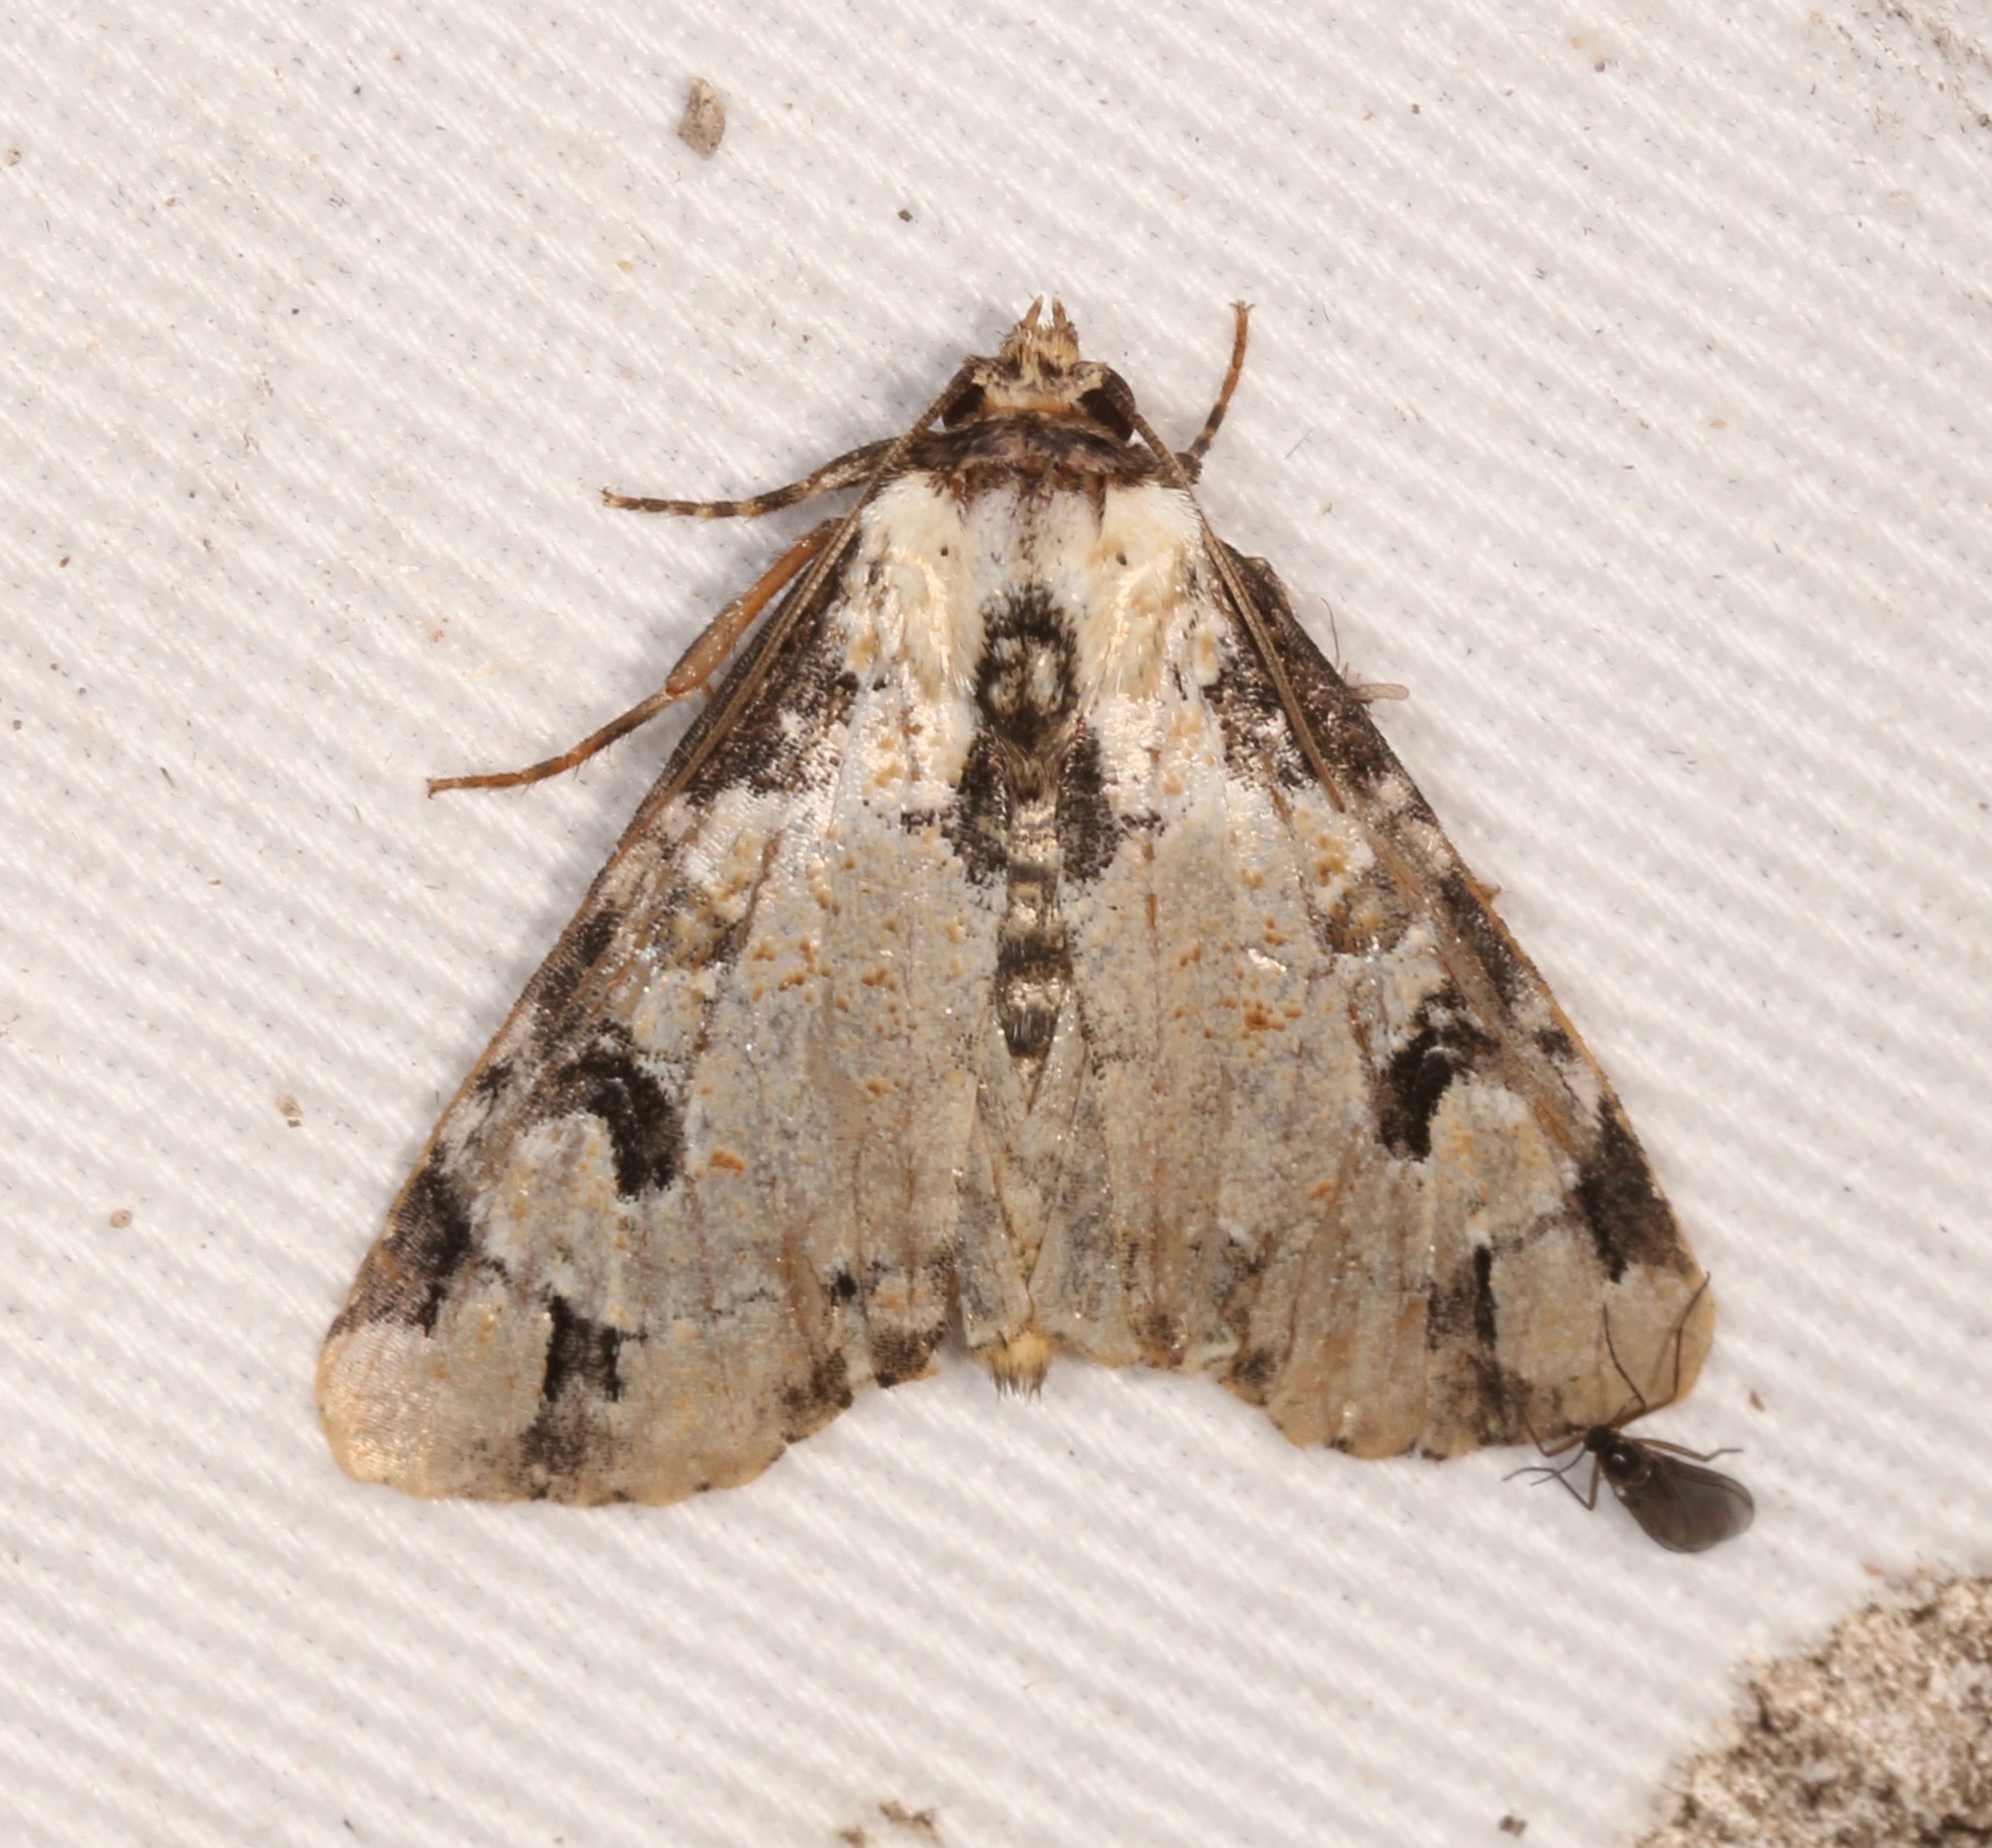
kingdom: Animalia
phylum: Arthropoda
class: Insecta
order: Lepidoptera
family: Noctuidae
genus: Stibaera
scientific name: Stibaera thyatiroides
